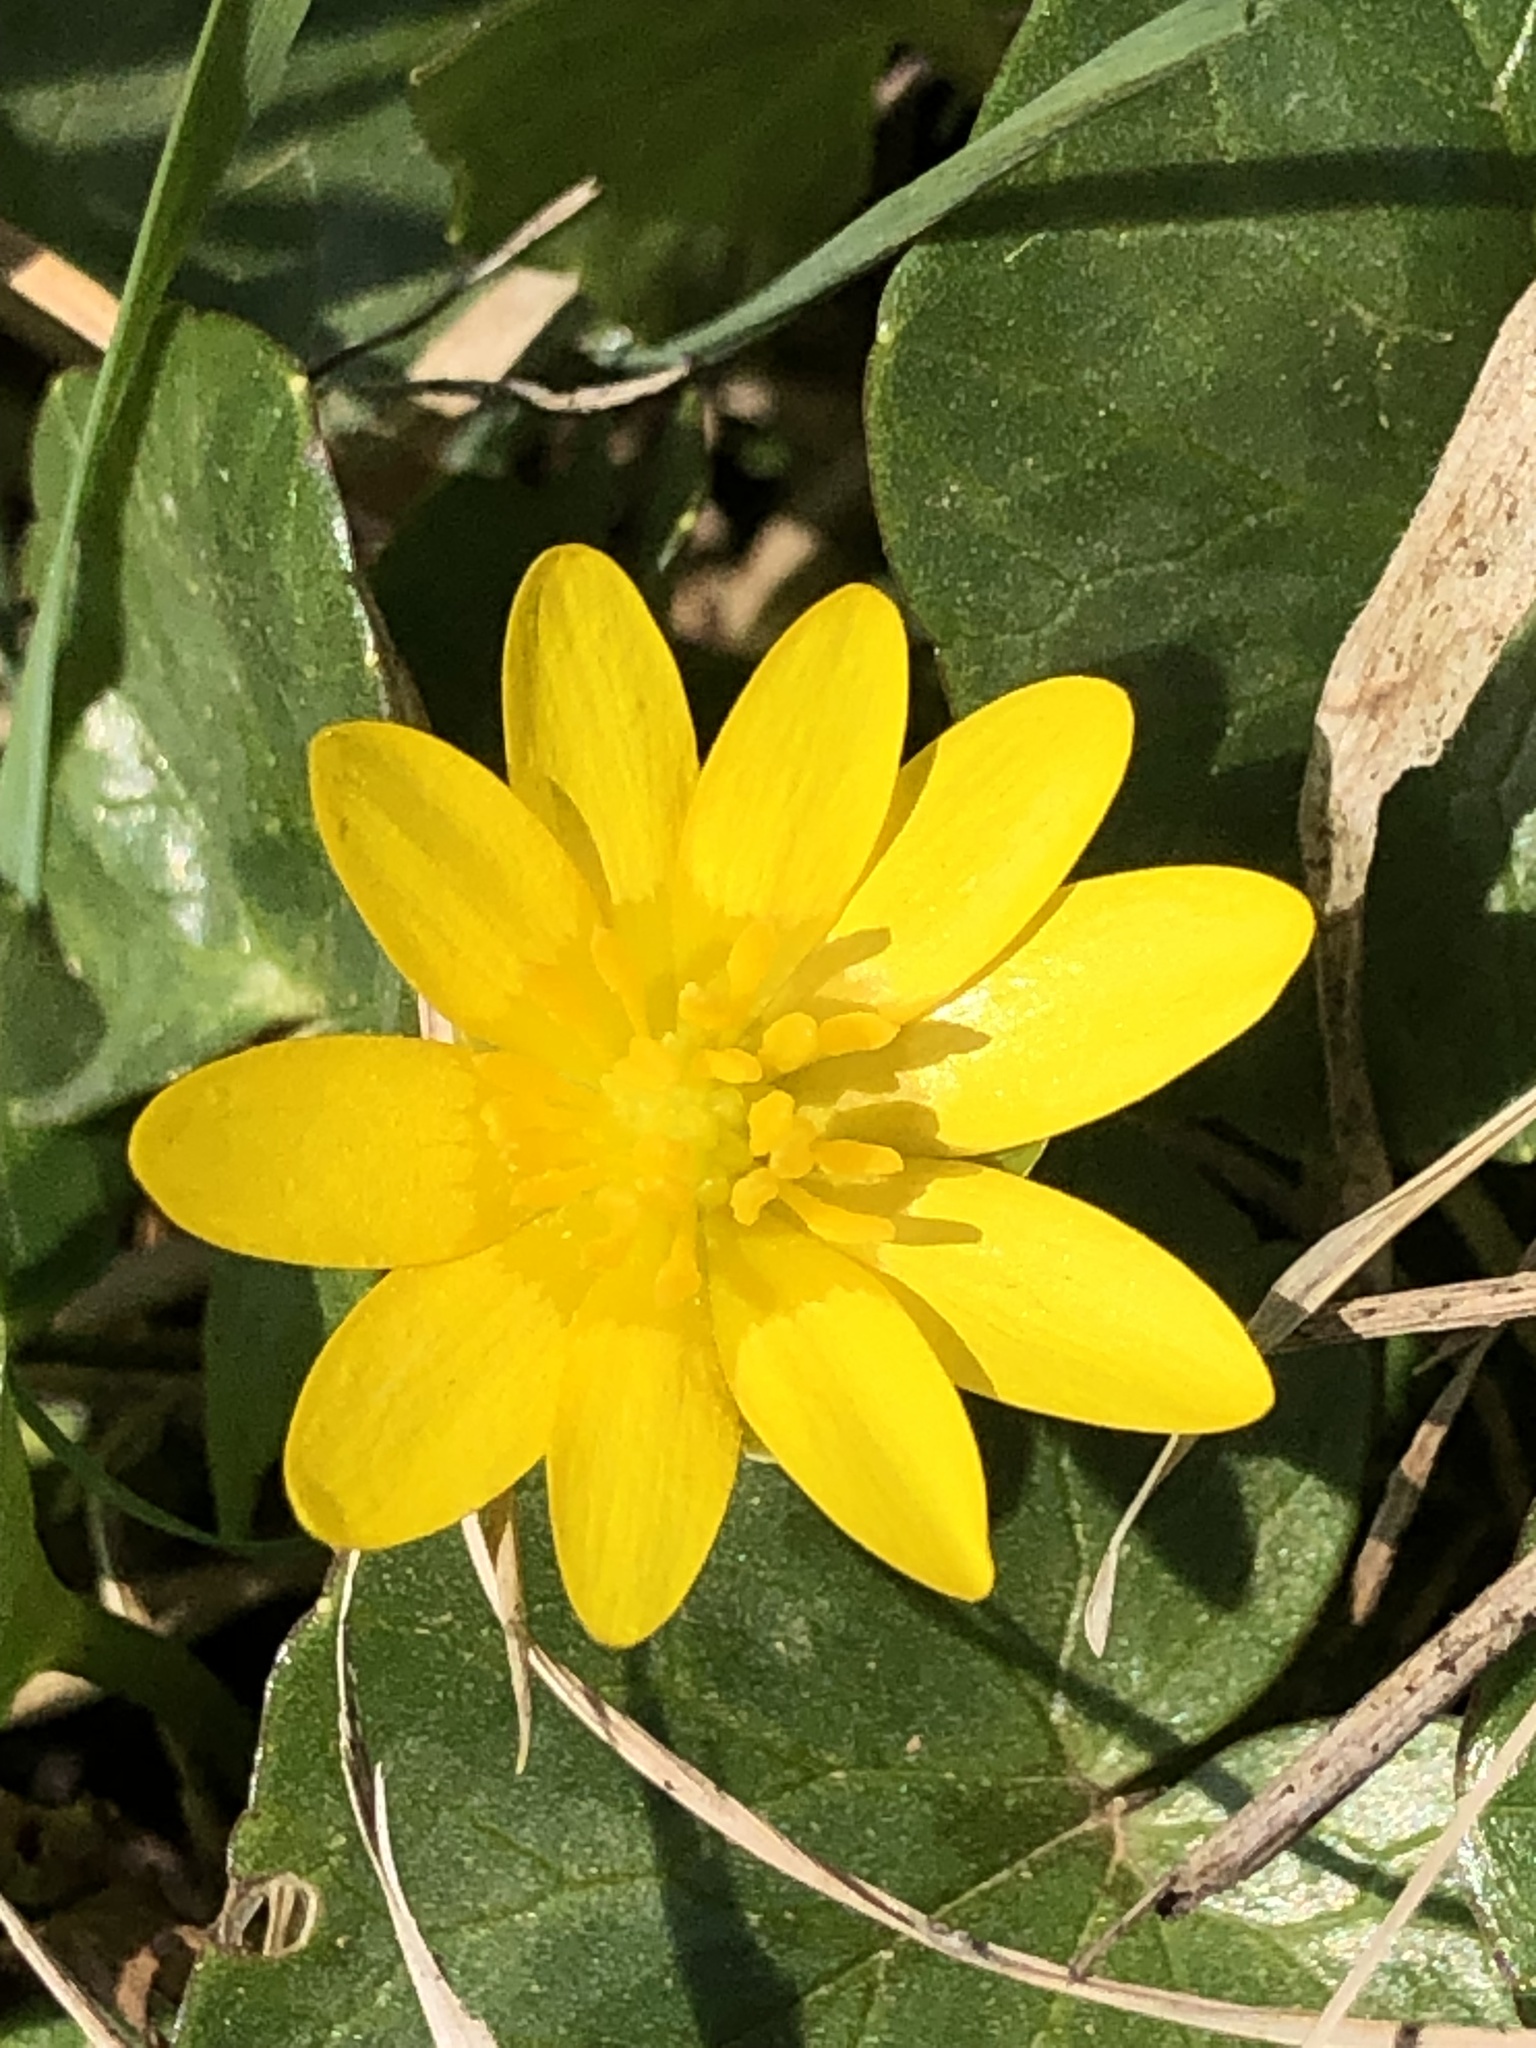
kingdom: Plantae
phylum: Tracheophyta
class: Magnoliopsida
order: Ranunculales
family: Ranunculaceae
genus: Ficaria
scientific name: Ficaria verna
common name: Lesser celandine
